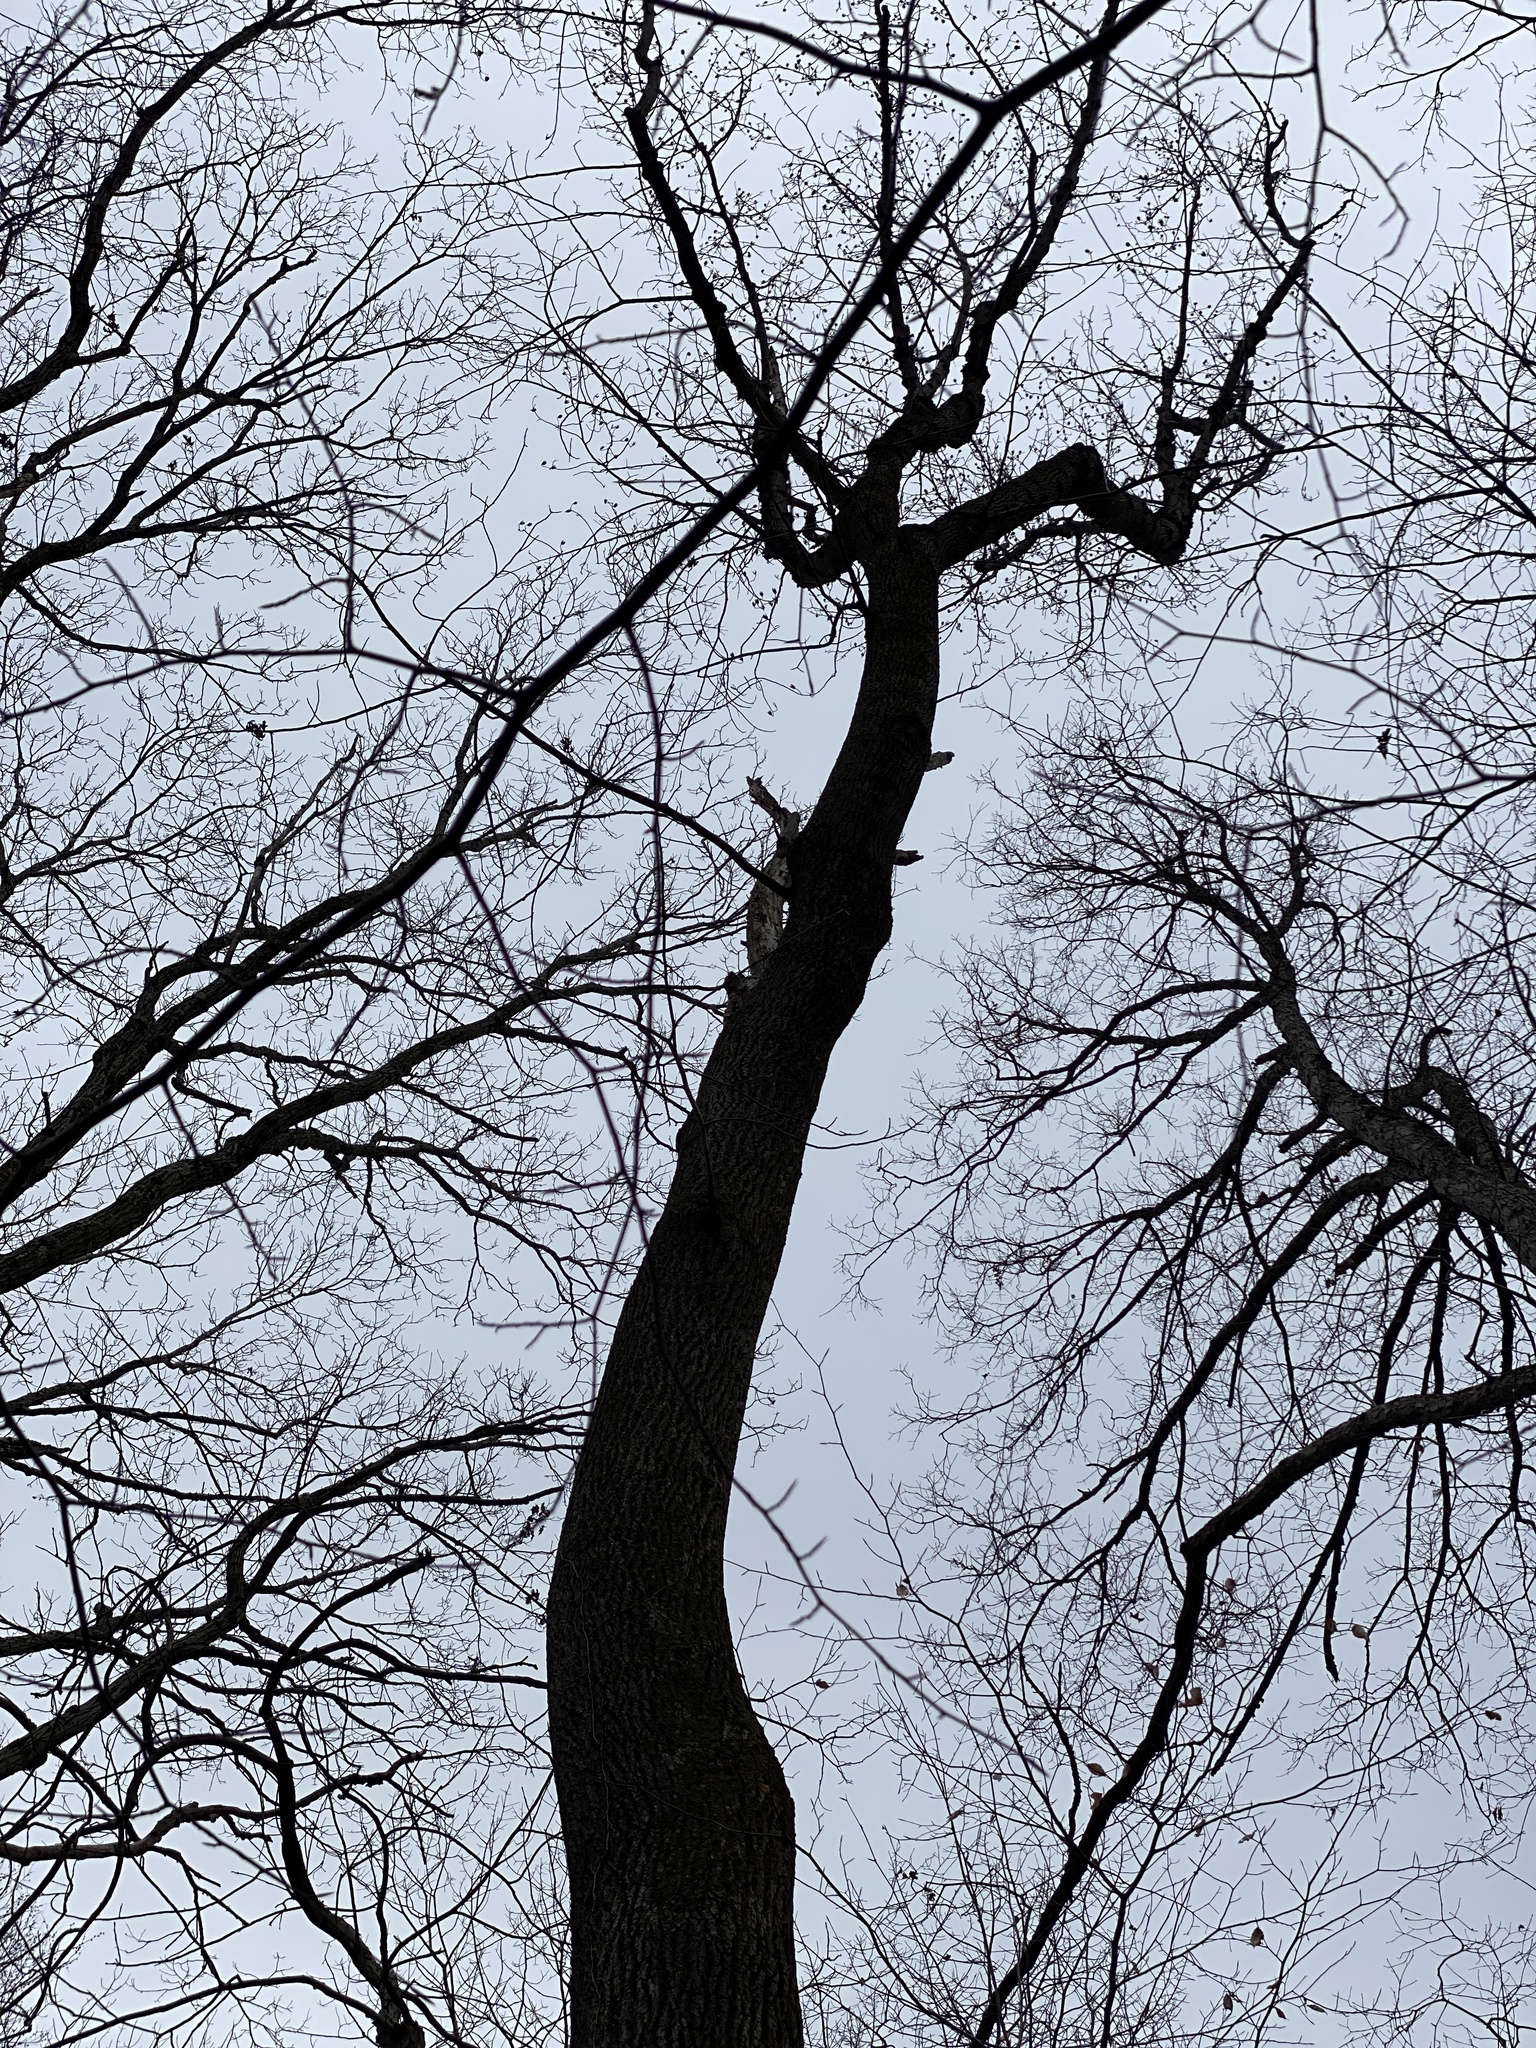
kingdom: Plantae
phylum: Tracheophyta
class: Magnoliopsida
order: Magnoliales
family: Magnoliaceae
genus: Liriodendron
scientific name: Liriodendron tulipifera
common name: Tulip tree
